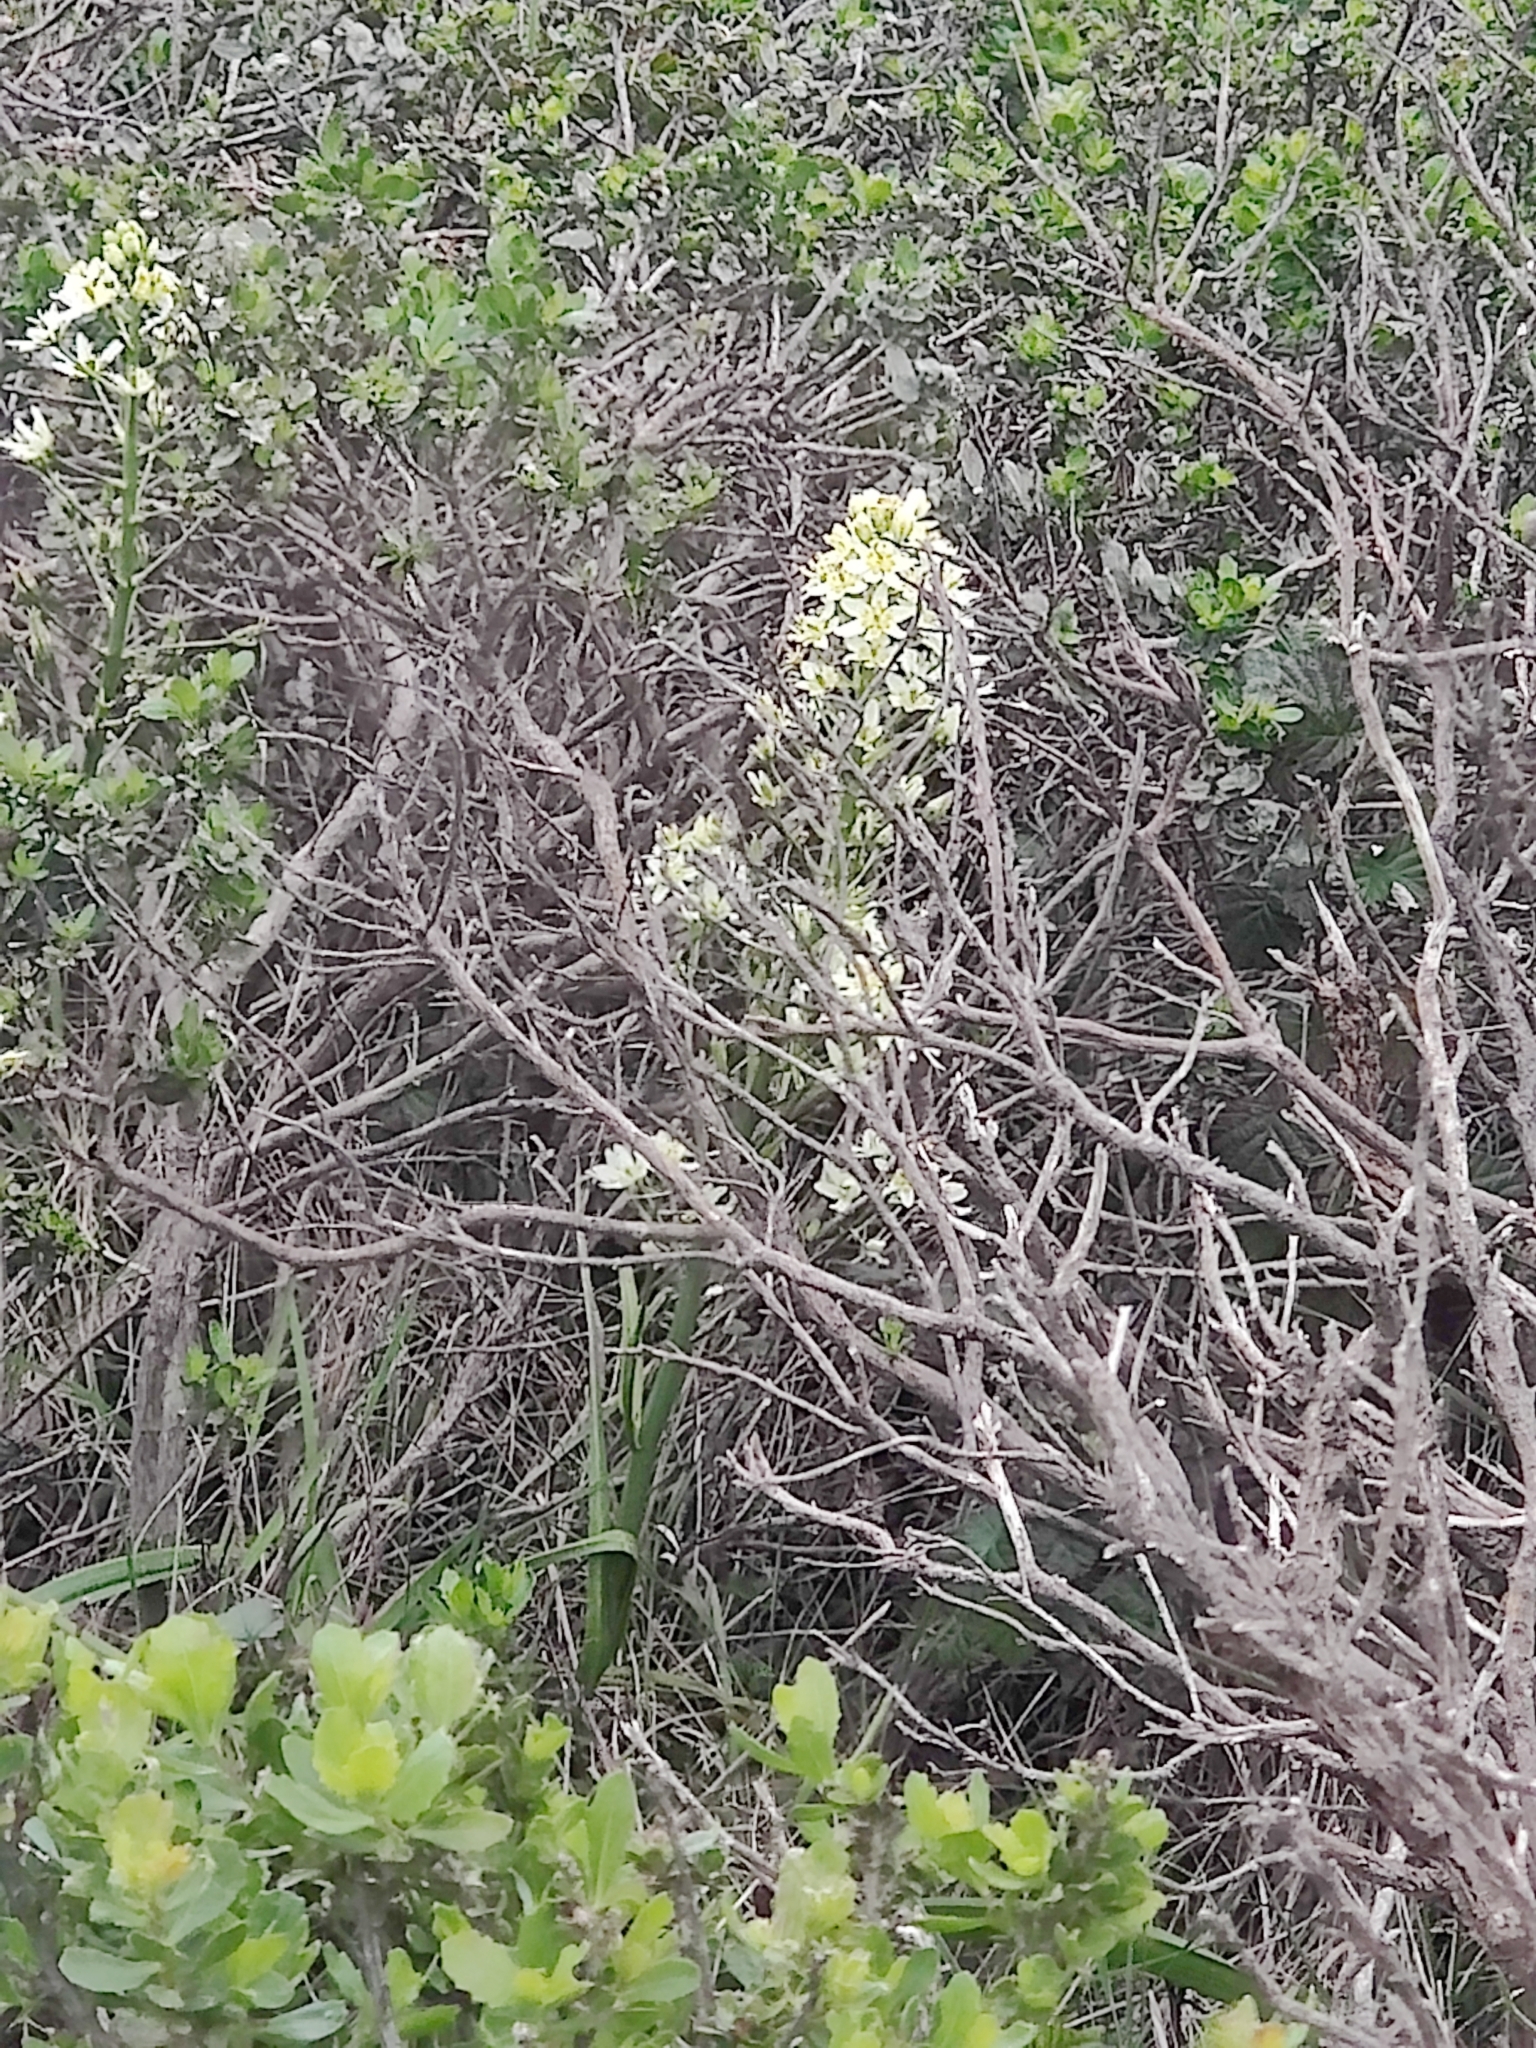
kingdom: Plantae
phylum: Tracheophyta
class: Liliopsida
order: Liliales
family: Melanthiaceae
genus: Toxicoscordion
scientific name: Toxicoscordion fremontii
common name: Fremont's death camas
